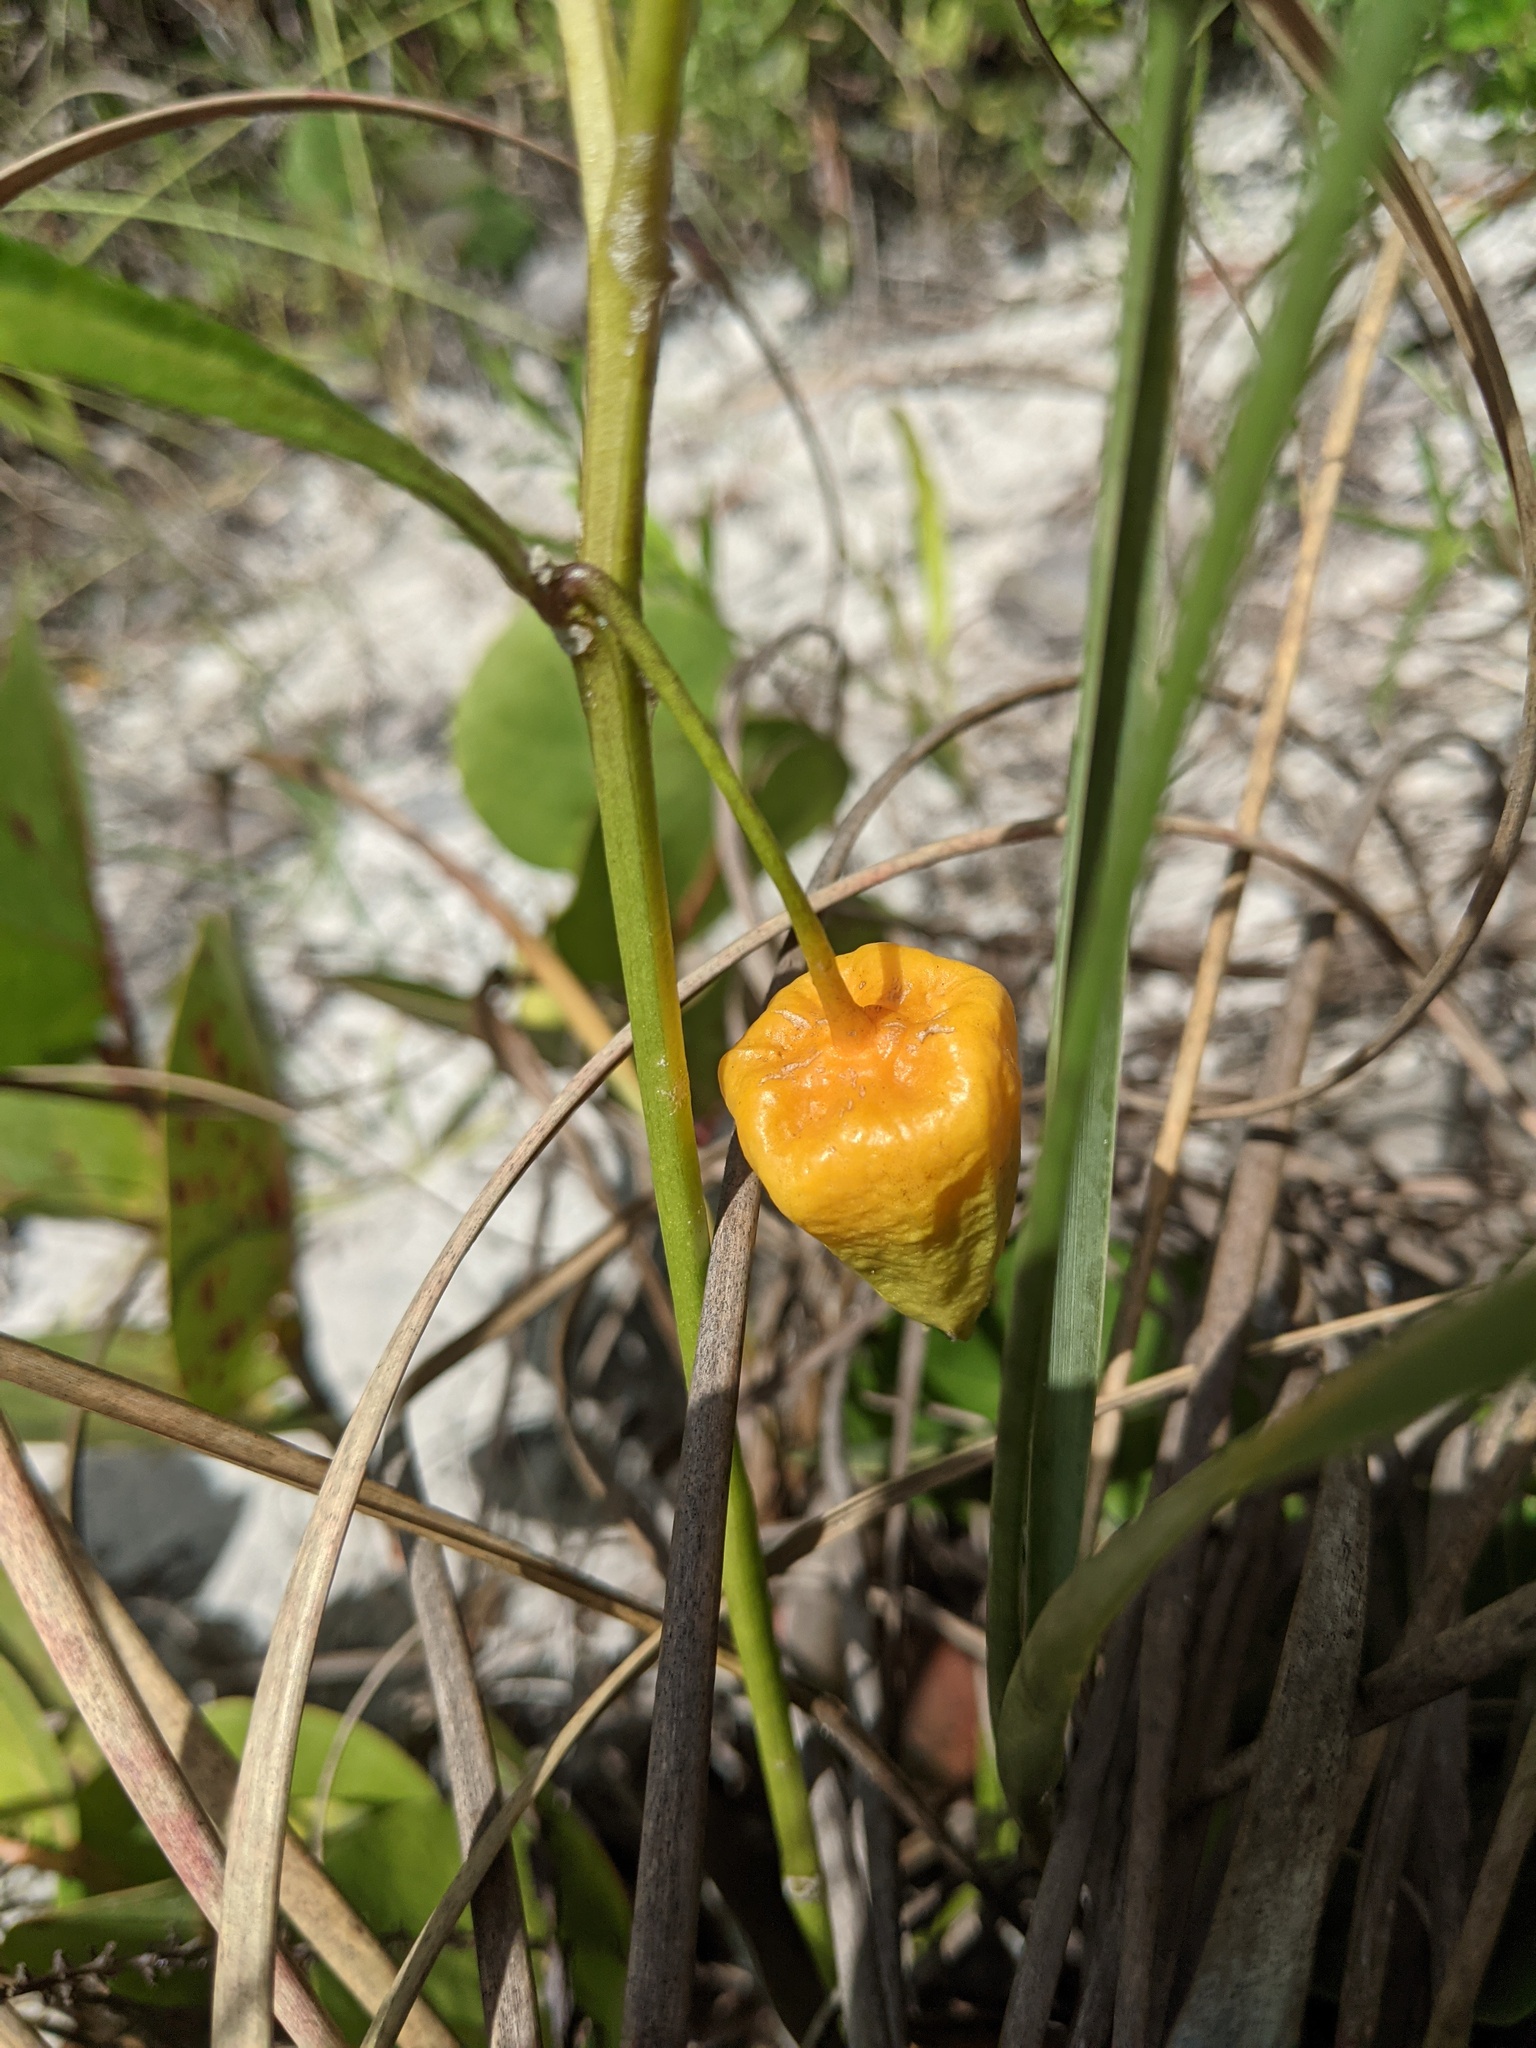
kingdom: Plantae
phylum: Tracheophyta
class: Magnoliopsida
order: Solanales
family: Solanaceae
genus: Physalis
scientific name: Physalis elliottii
